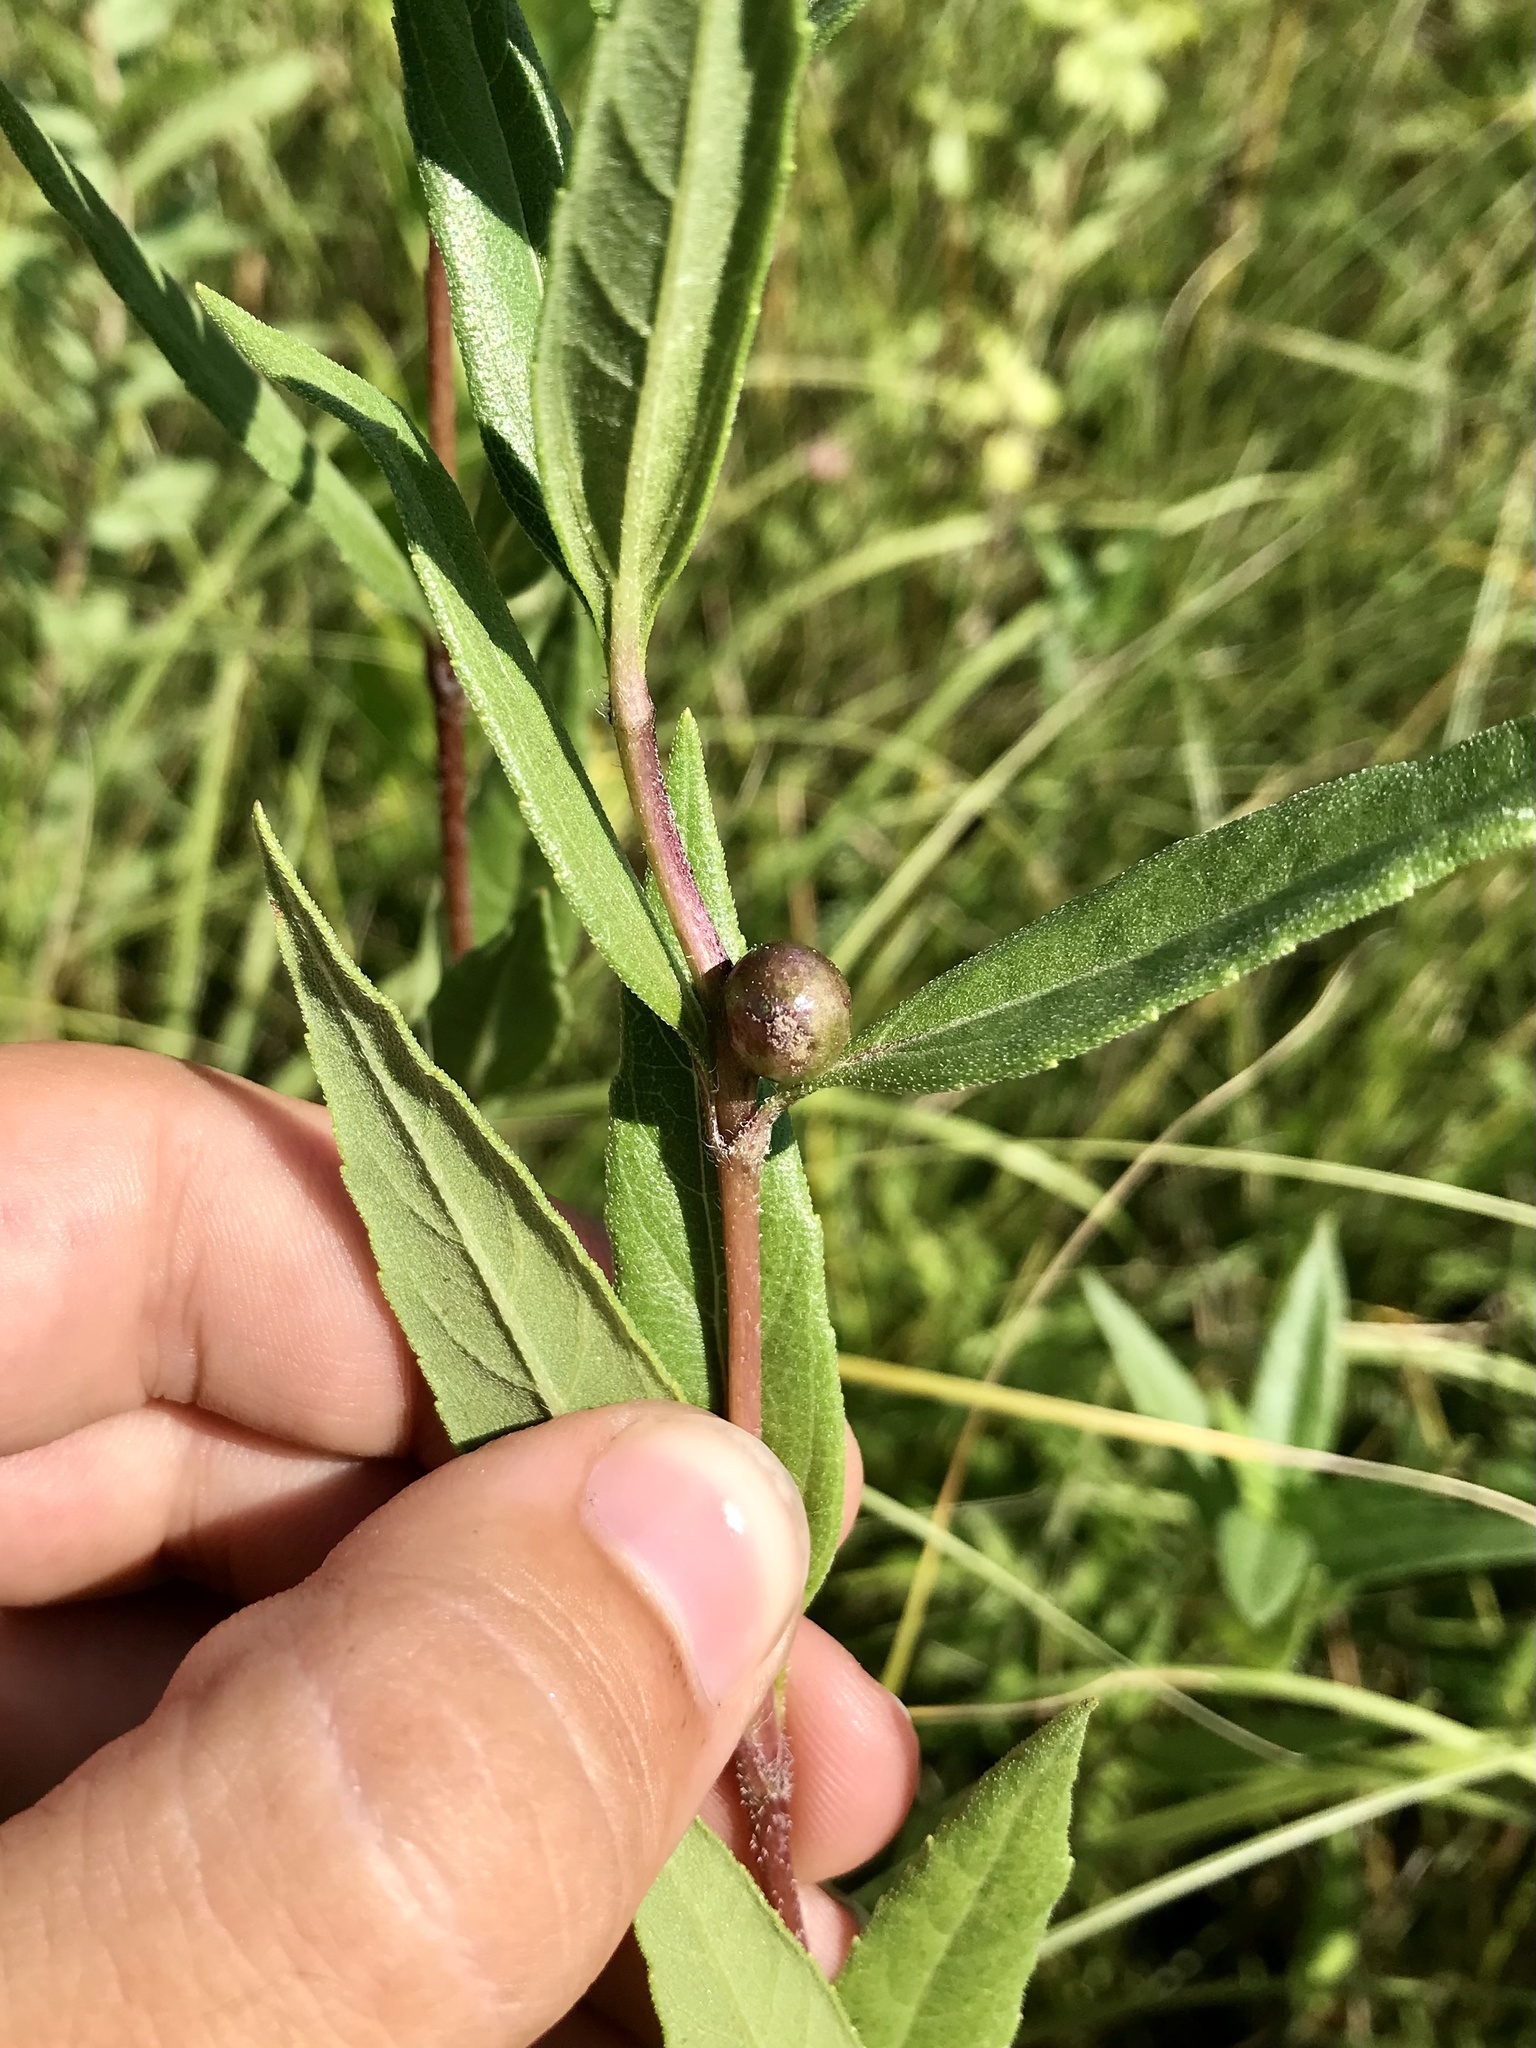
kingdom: Animalia
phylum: Arthropoda
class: Insecta
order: Diptera
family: Cecidomyiidae
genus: Asphondylia
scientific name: Asphondylia helianthiglobulus
